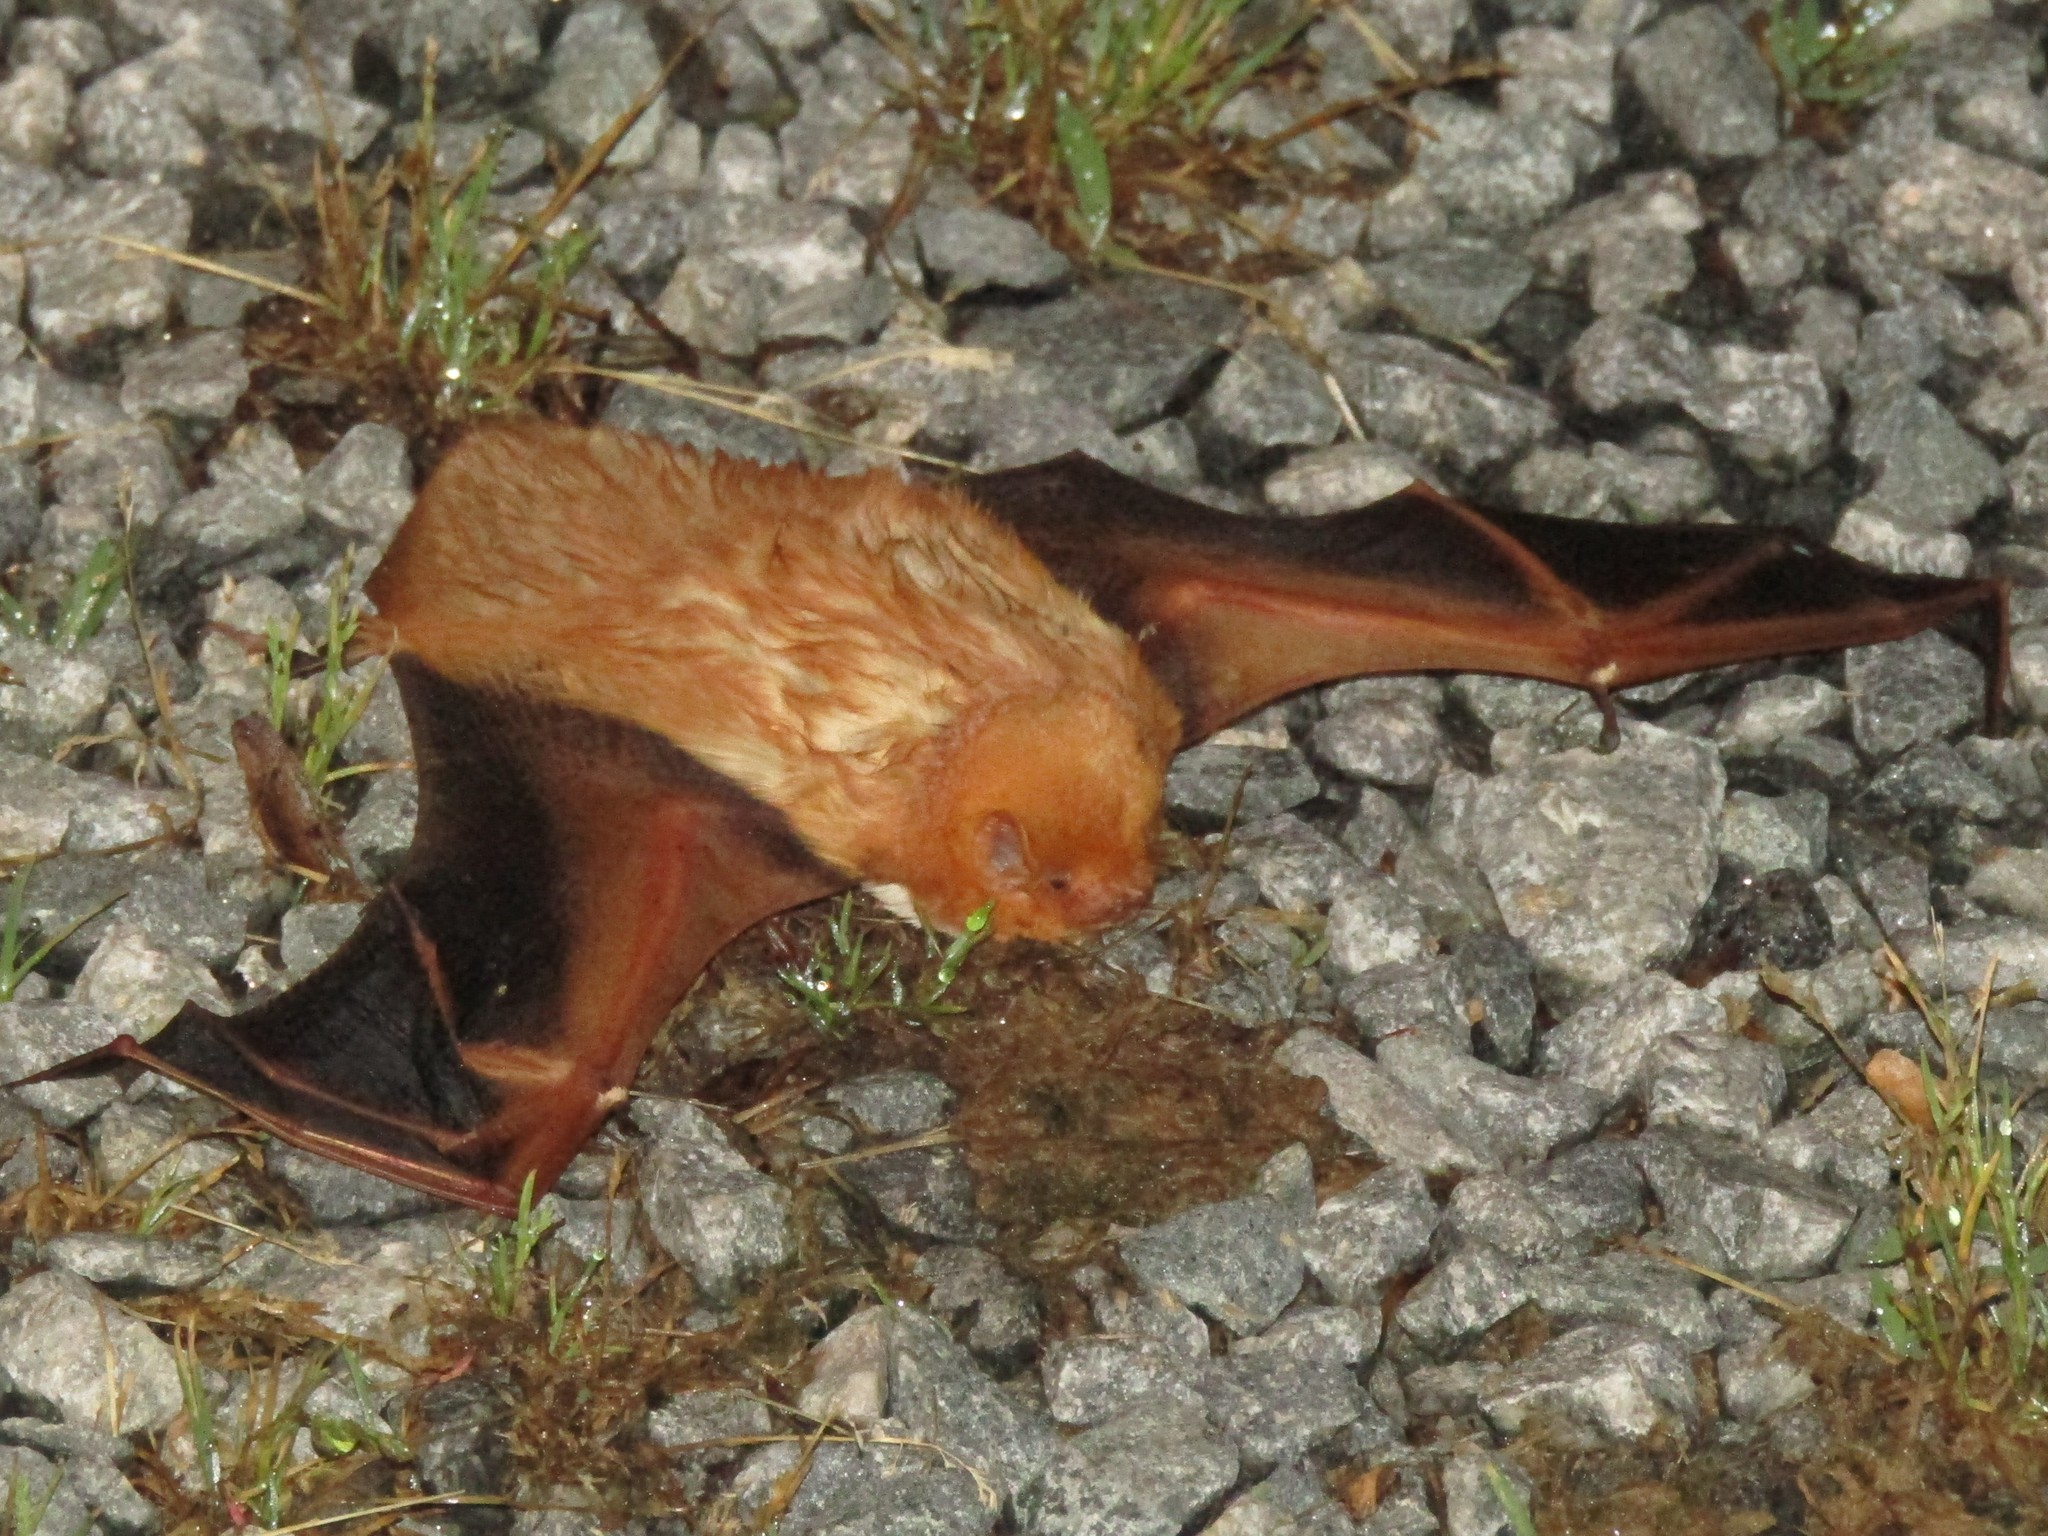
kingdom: Animalia
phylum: Chordata
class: Mammalia
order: Chiroptera
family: Vespertilionidae
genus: Lasiurus
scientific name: Lasiurus borealis
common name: Eastern red bat
